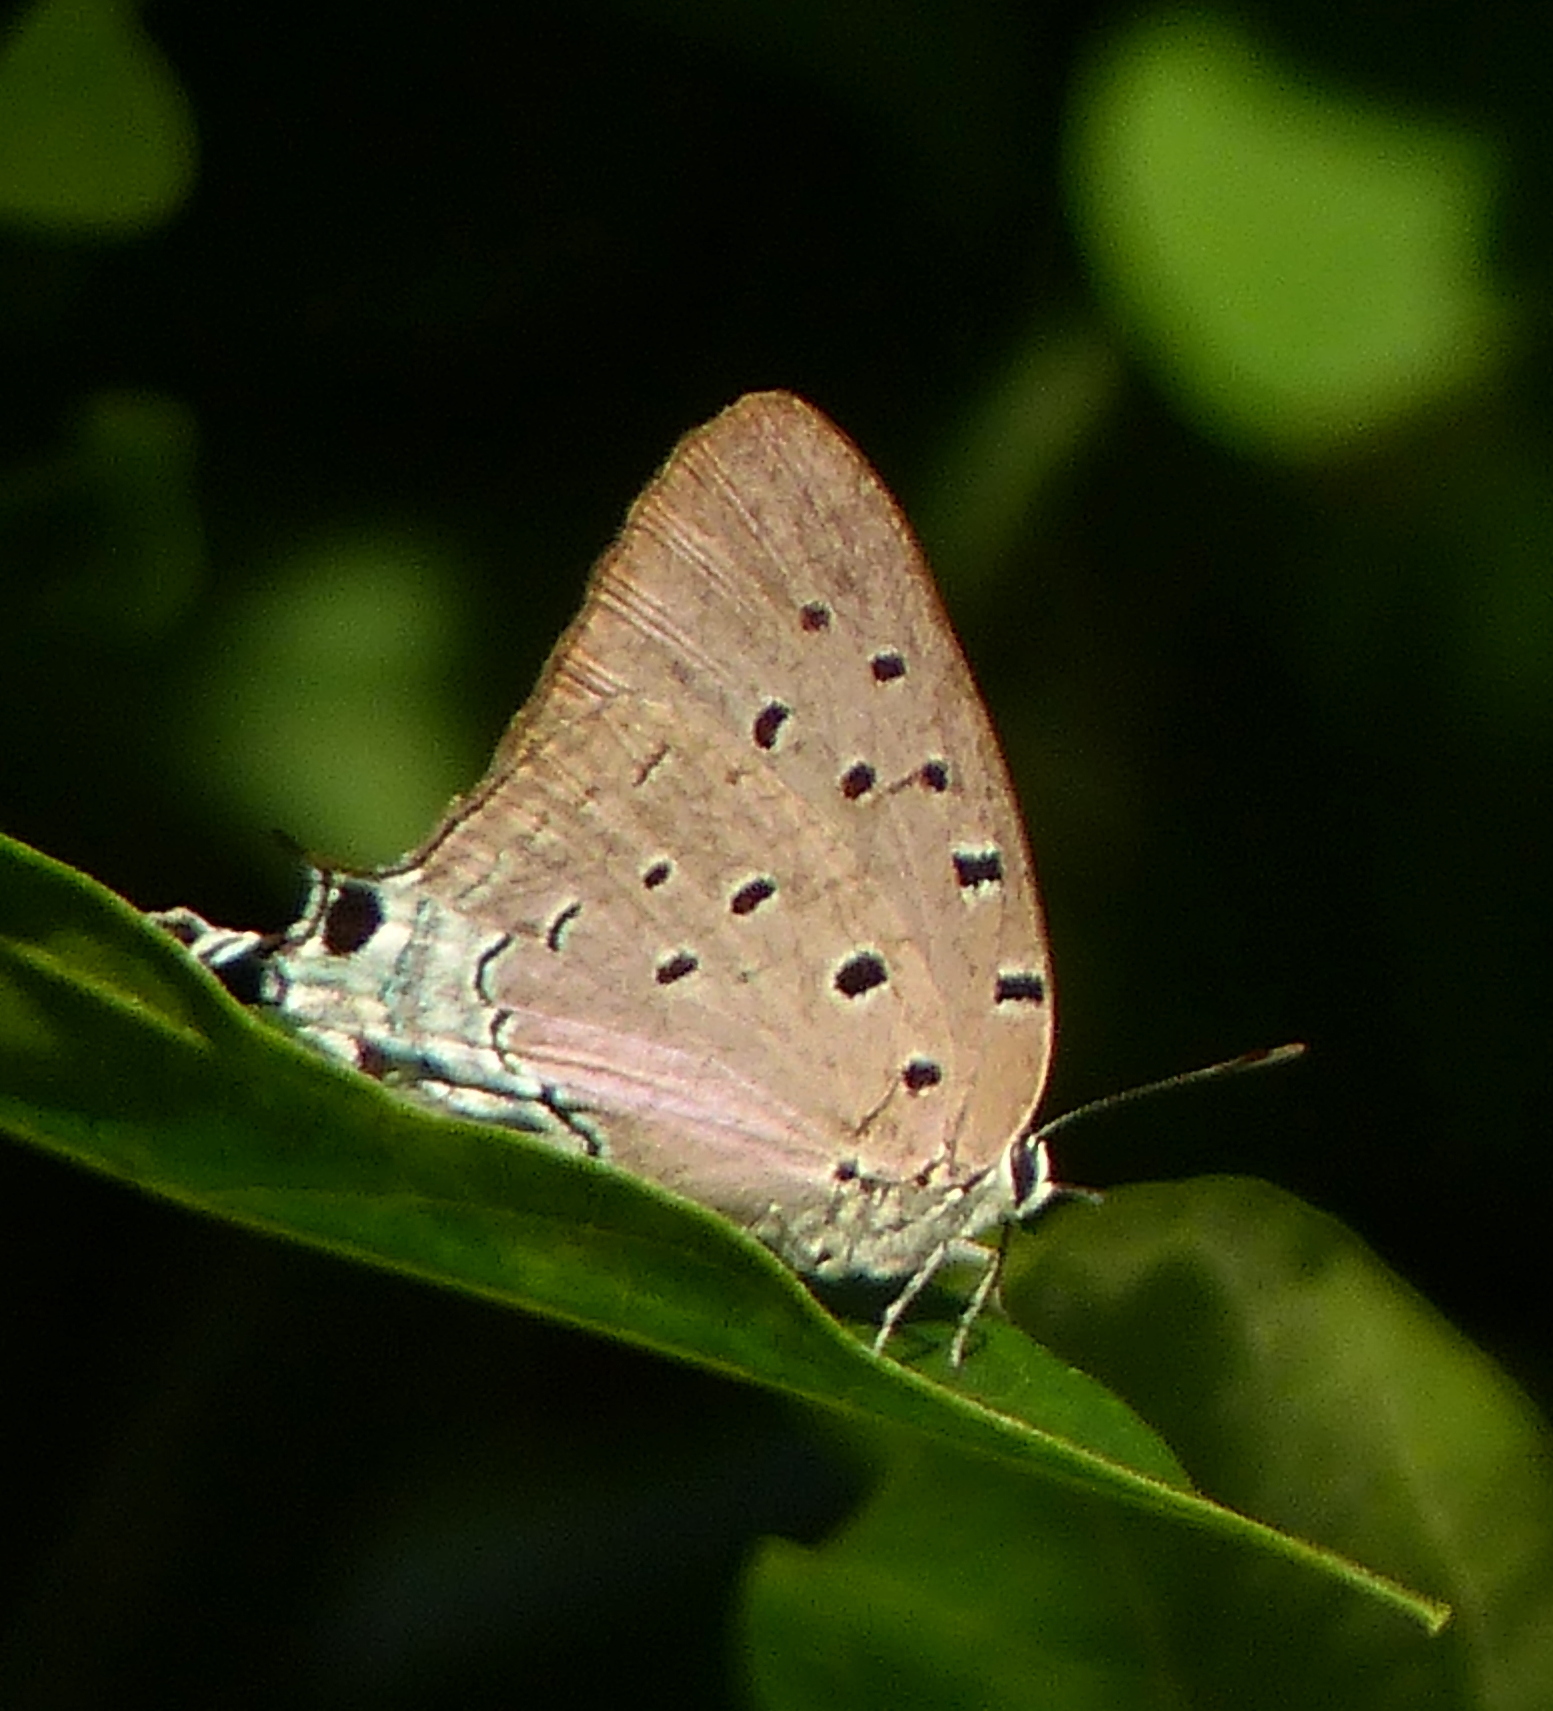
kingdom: Animalia
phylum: Arthropoda
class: Insecta
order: Lepidoptera
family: Lycaenidae
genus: Pseudolycaena
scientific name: Pseudolycaena marsyas
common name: Marsyas hairstreak
